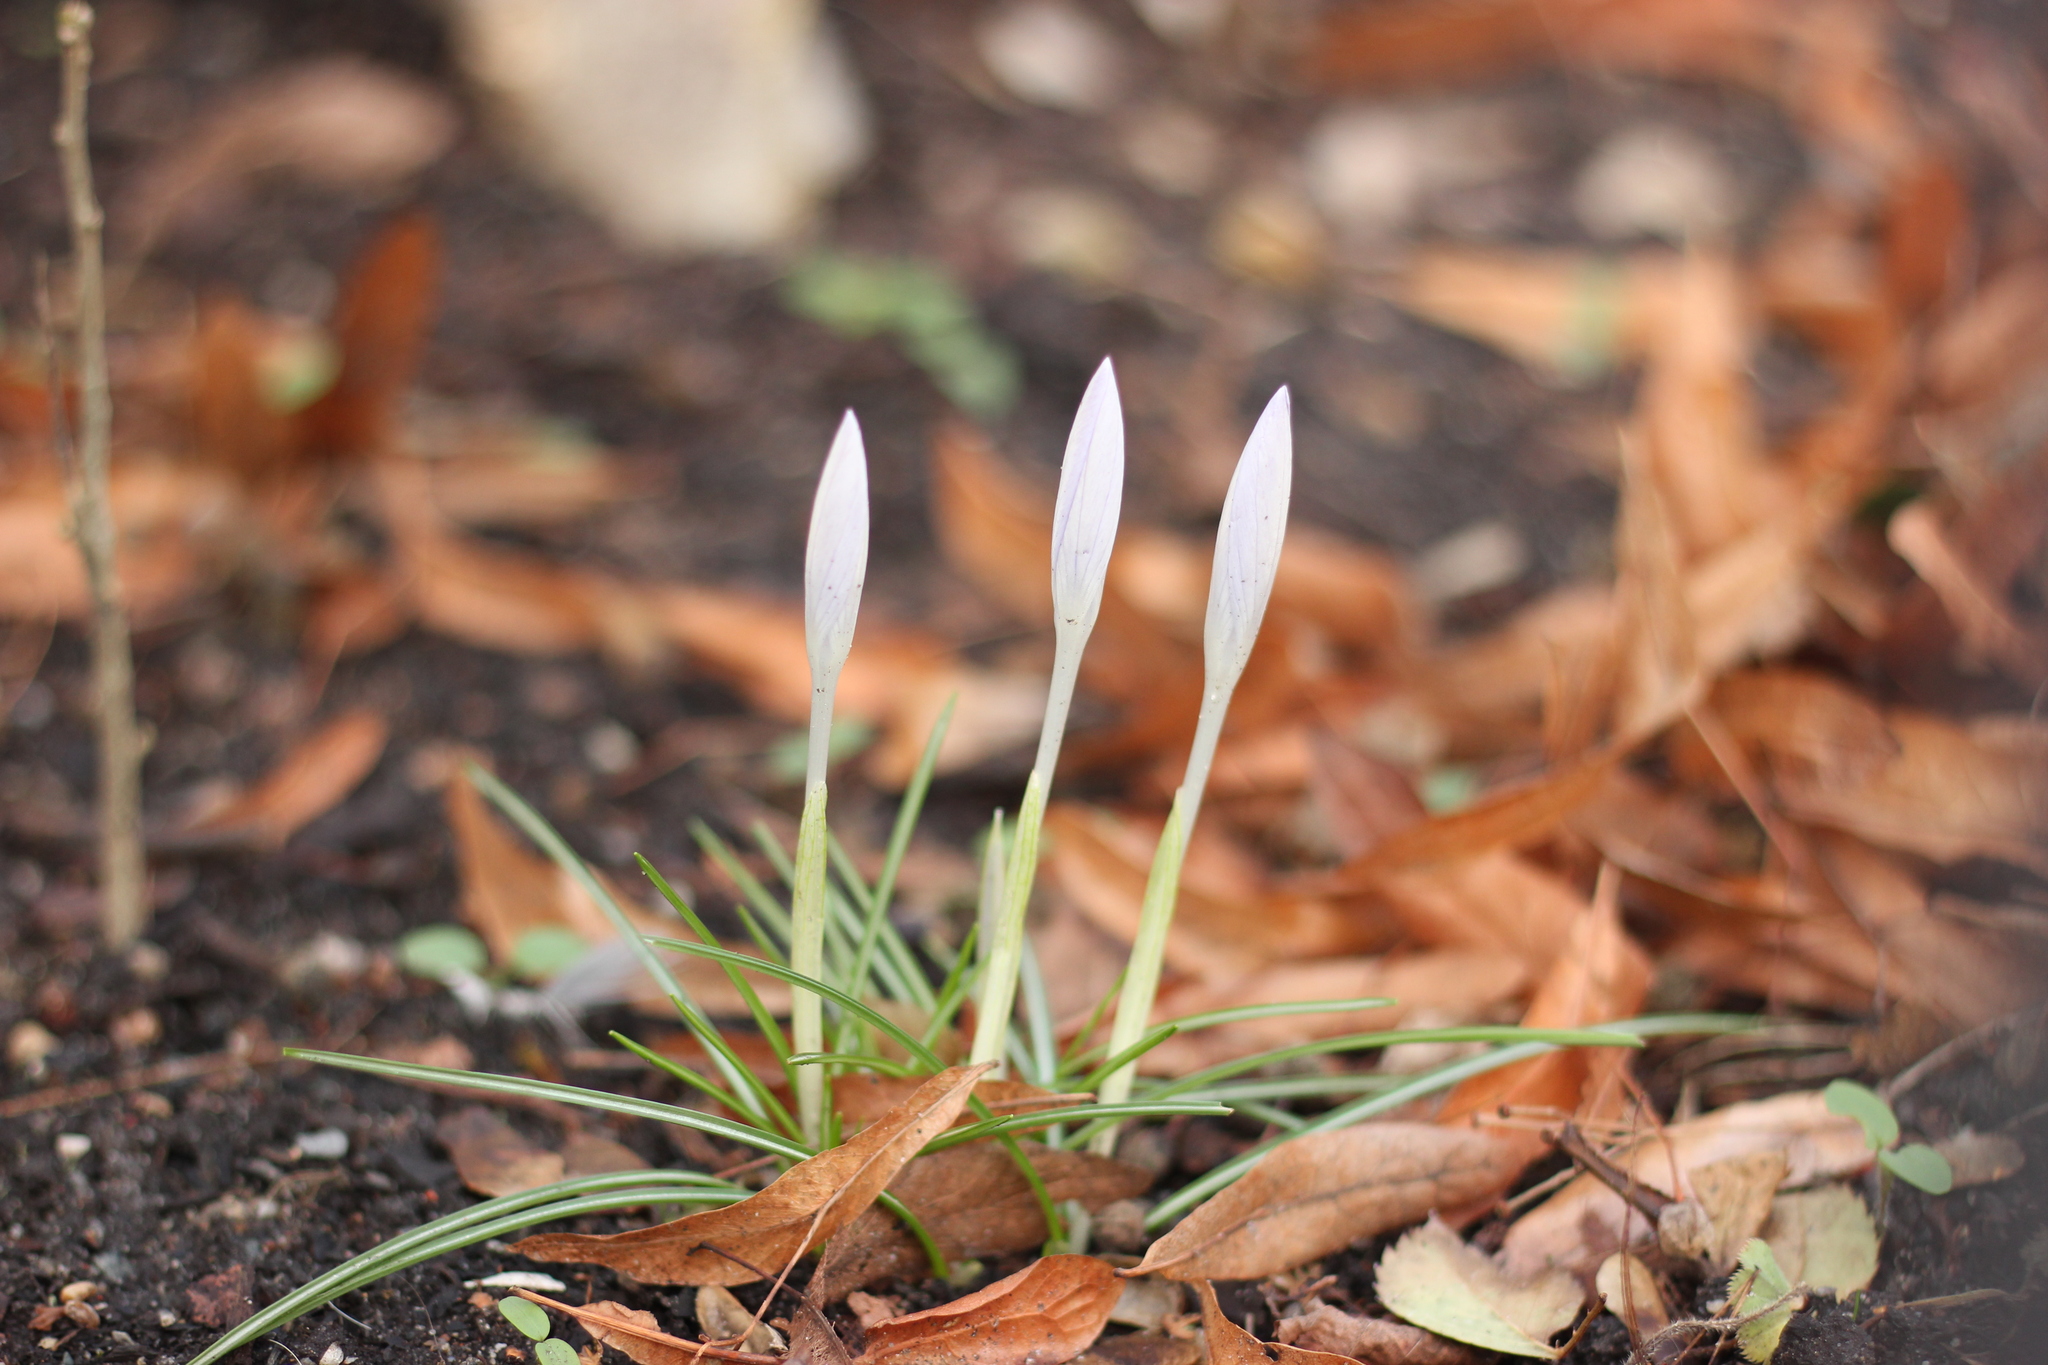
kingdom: Plantae
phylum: Tracheophyta
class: Liliopsida
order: Asparagales
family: Iridaceae
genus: Crocus
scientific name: Crocus tommasinianus
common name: Early crocus
